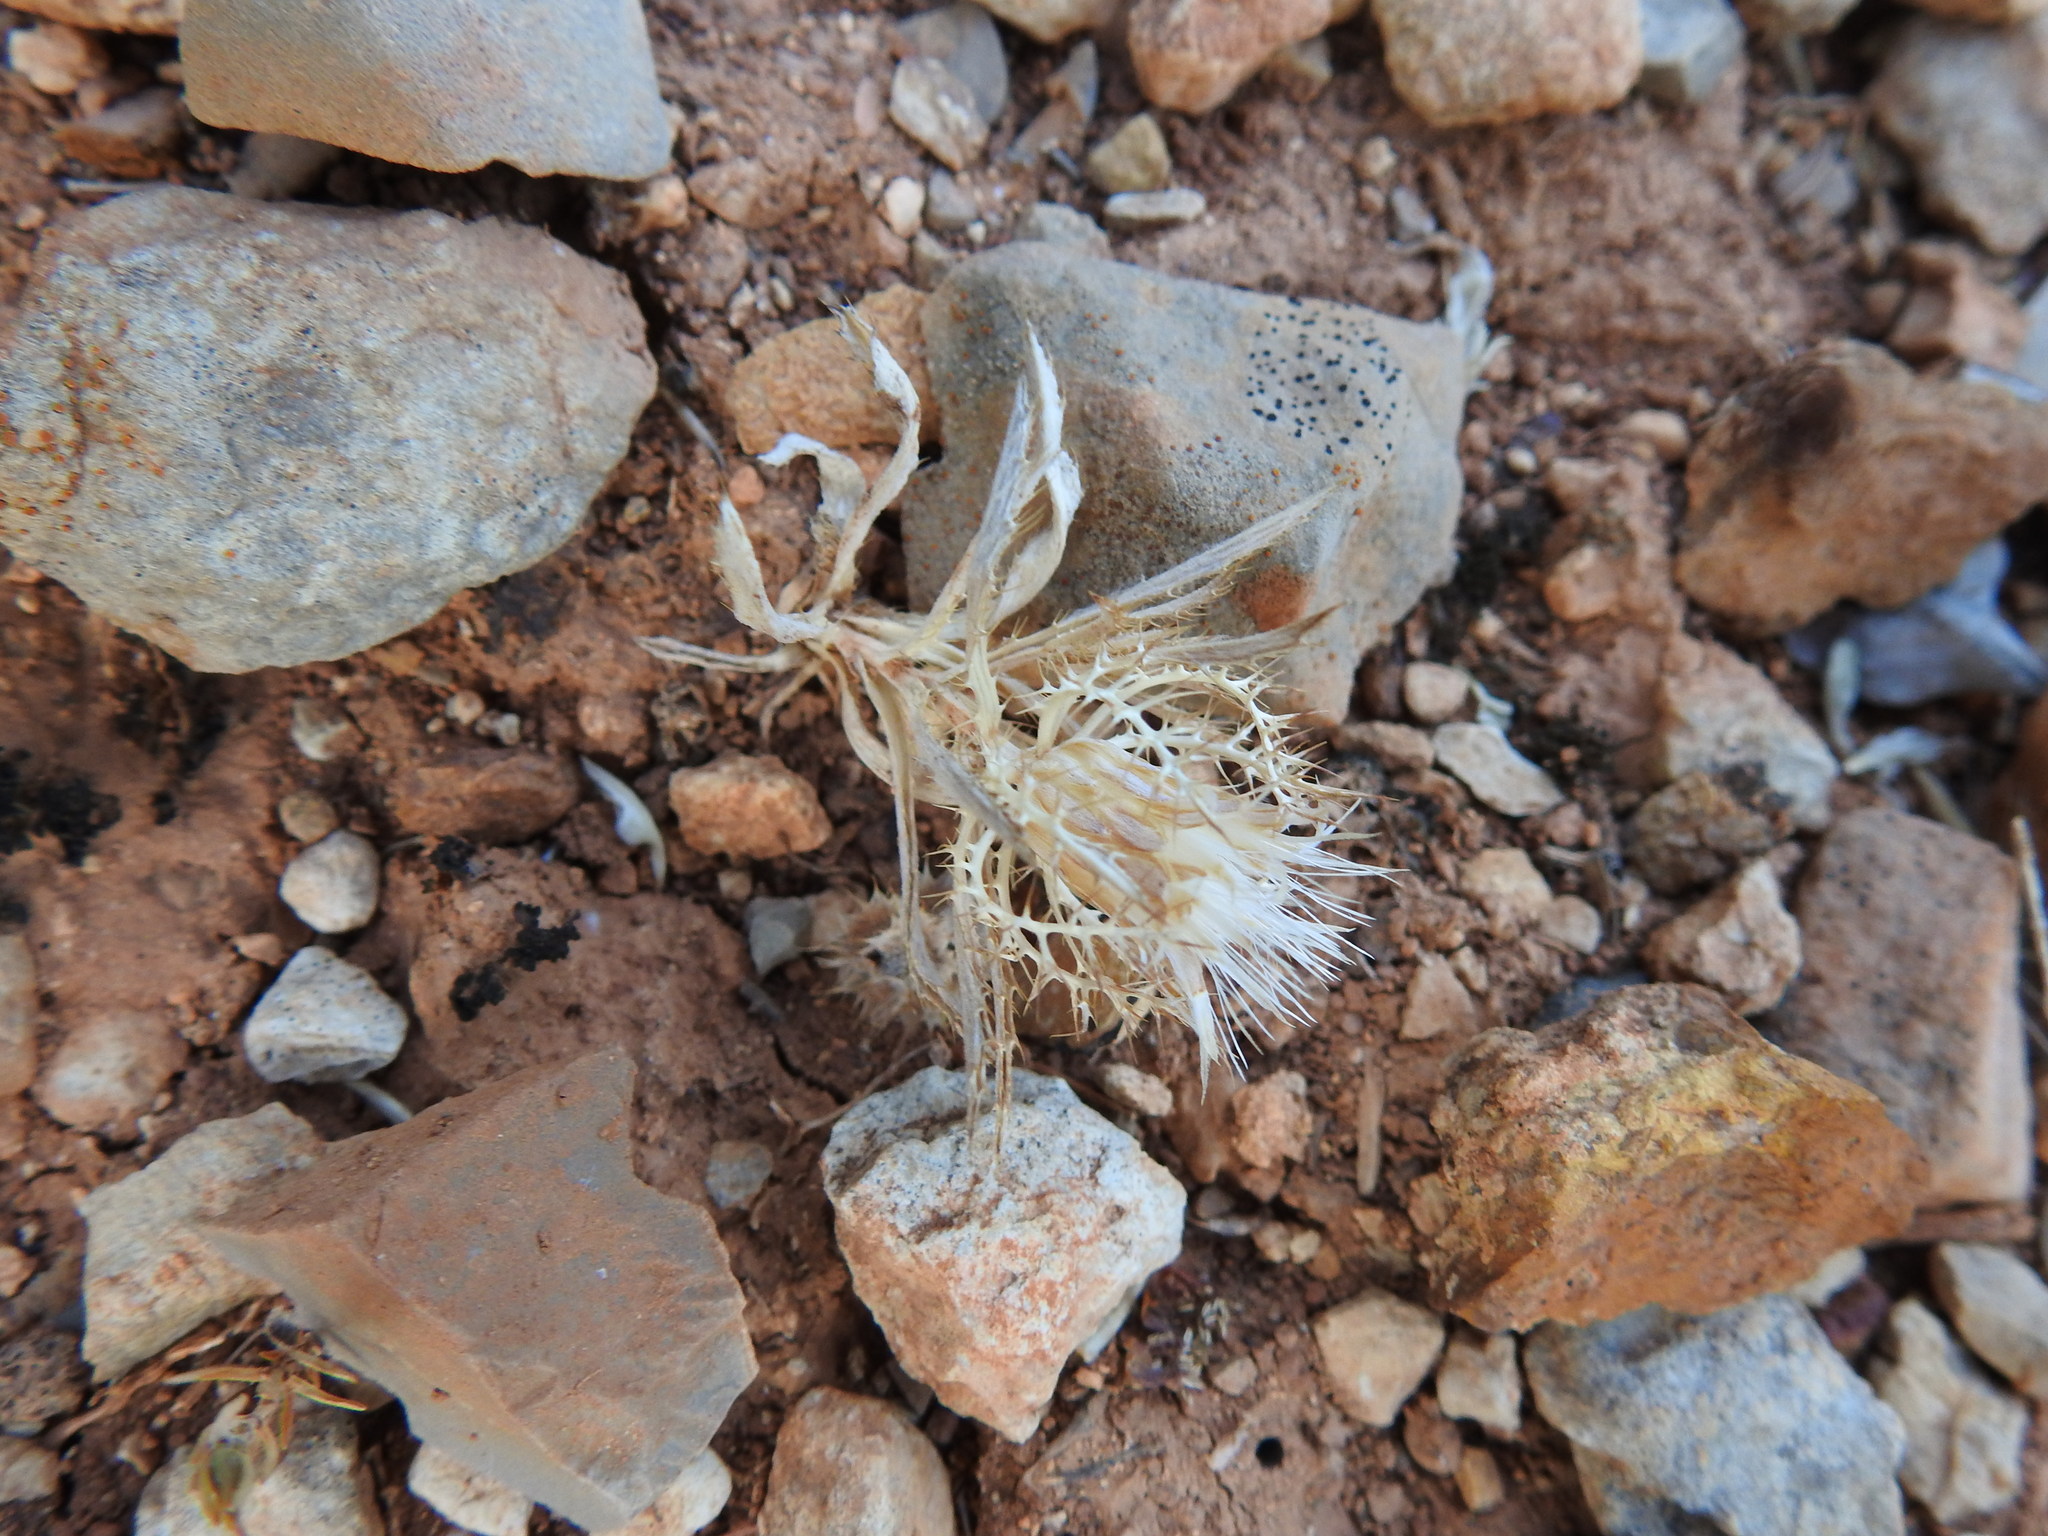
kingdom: Plantae
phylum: Tracheophyta
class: Magnoliopsida
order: Asterales
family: Asteraceae
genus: Atractylis
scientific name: Atractylis cancellata
